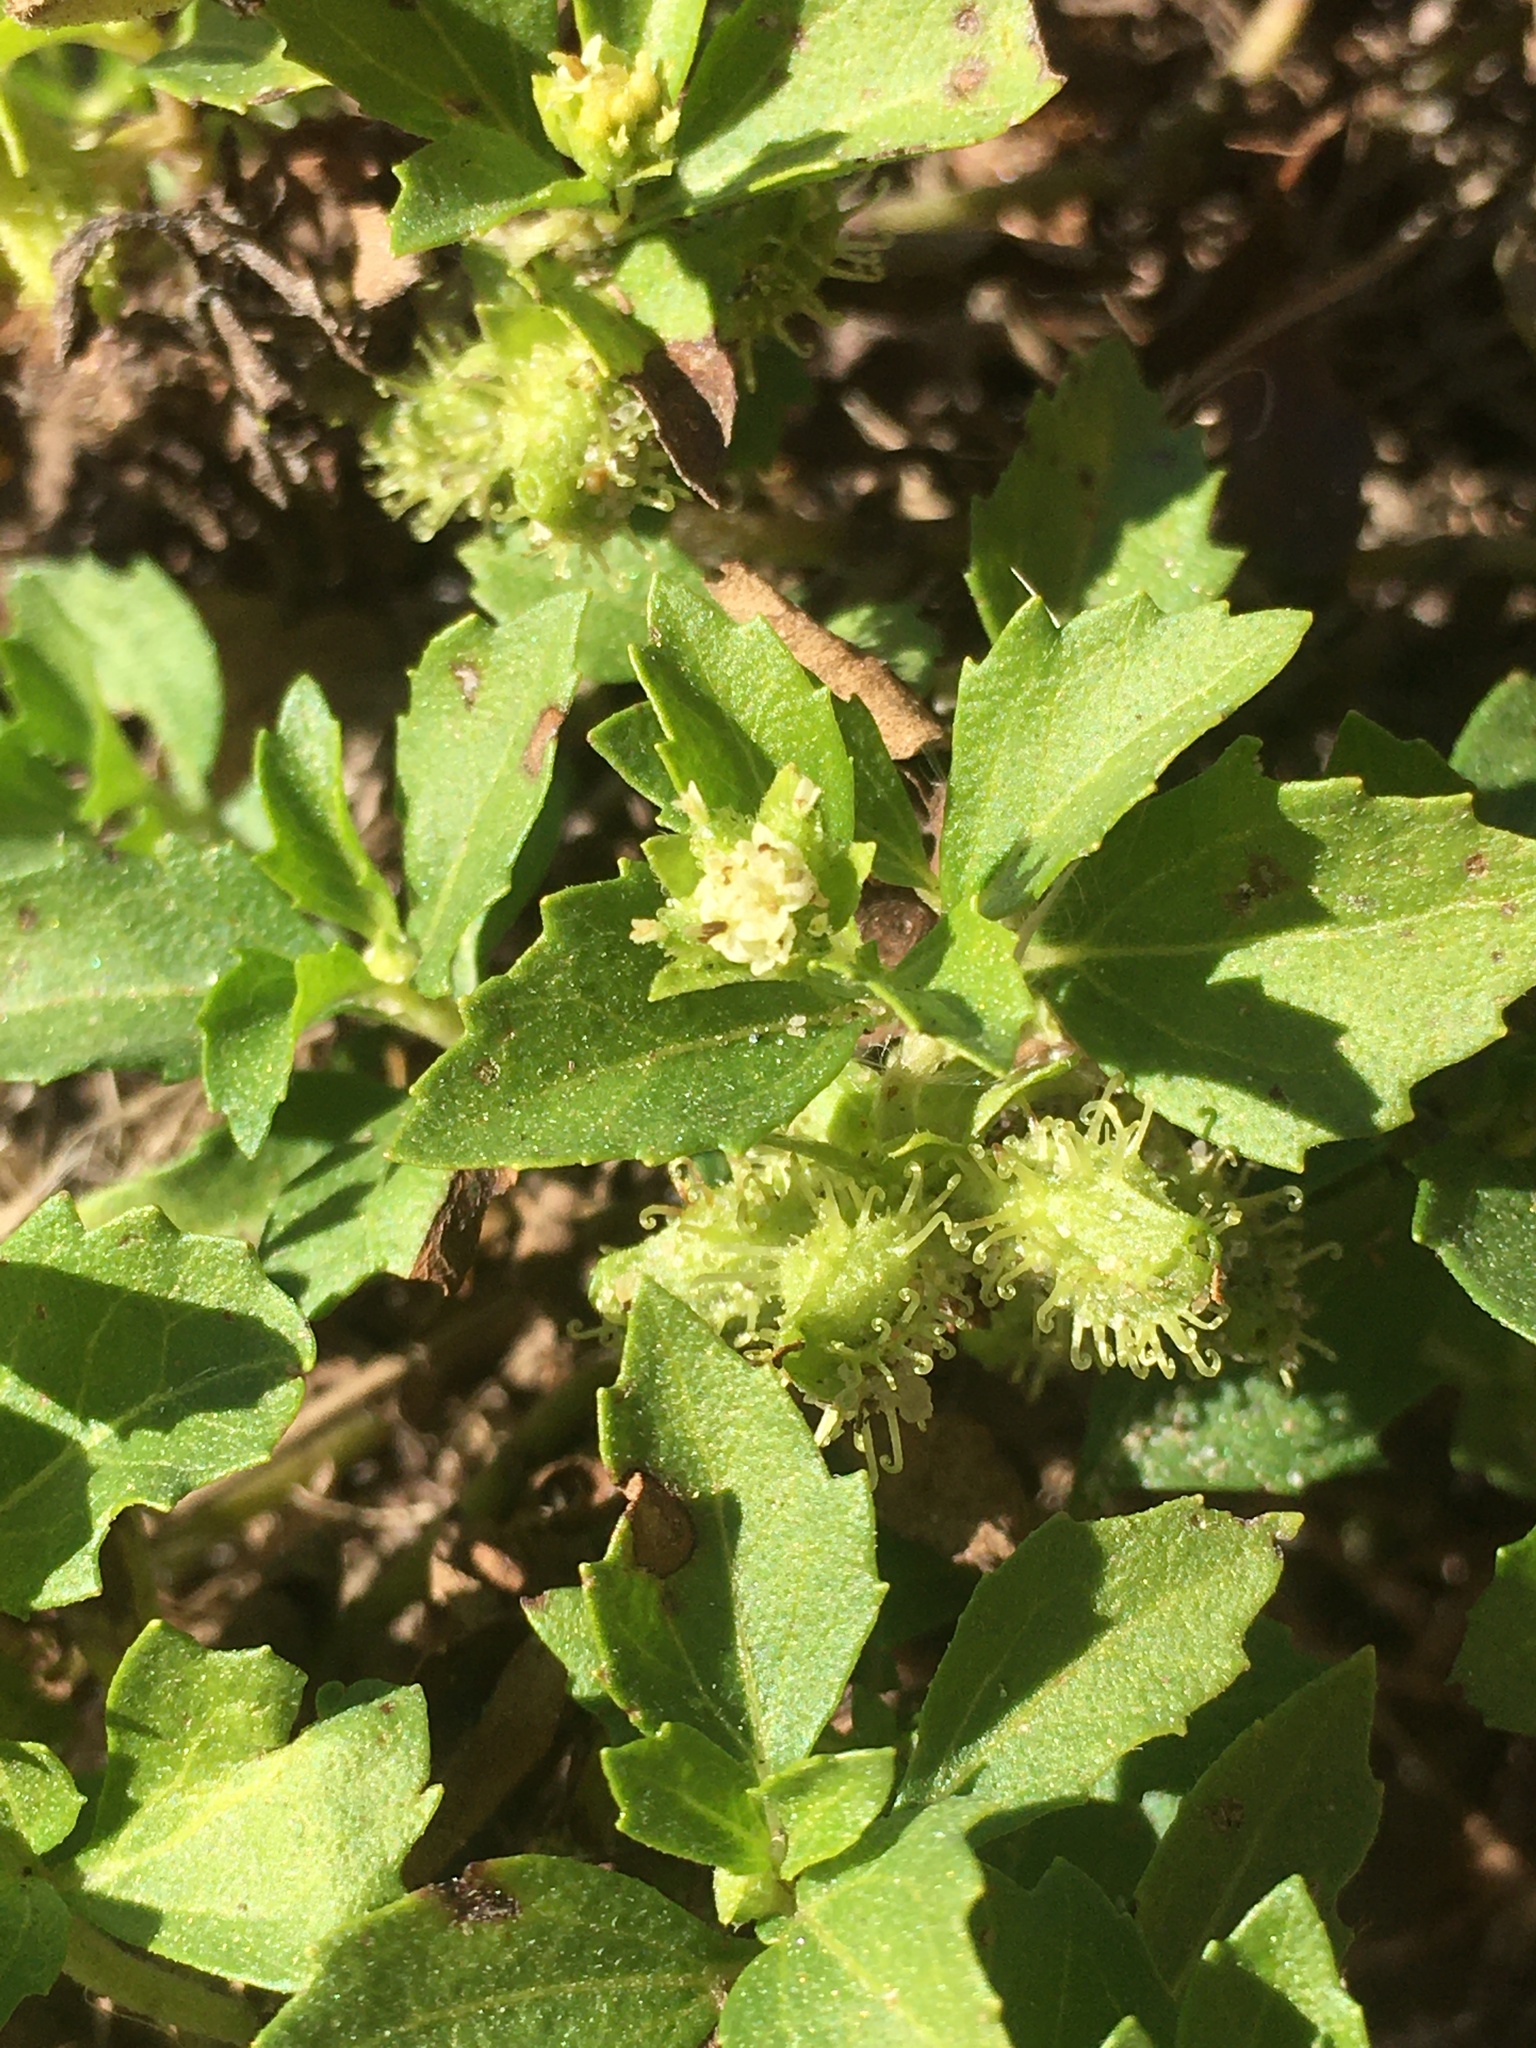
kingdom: Plantae
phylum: Tracheophyta
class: Magnoliopsida
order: Asterales
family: Asteraceae
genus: Acanthospermum
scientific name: Acanthospermum australe
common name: Paraguayan starbur
